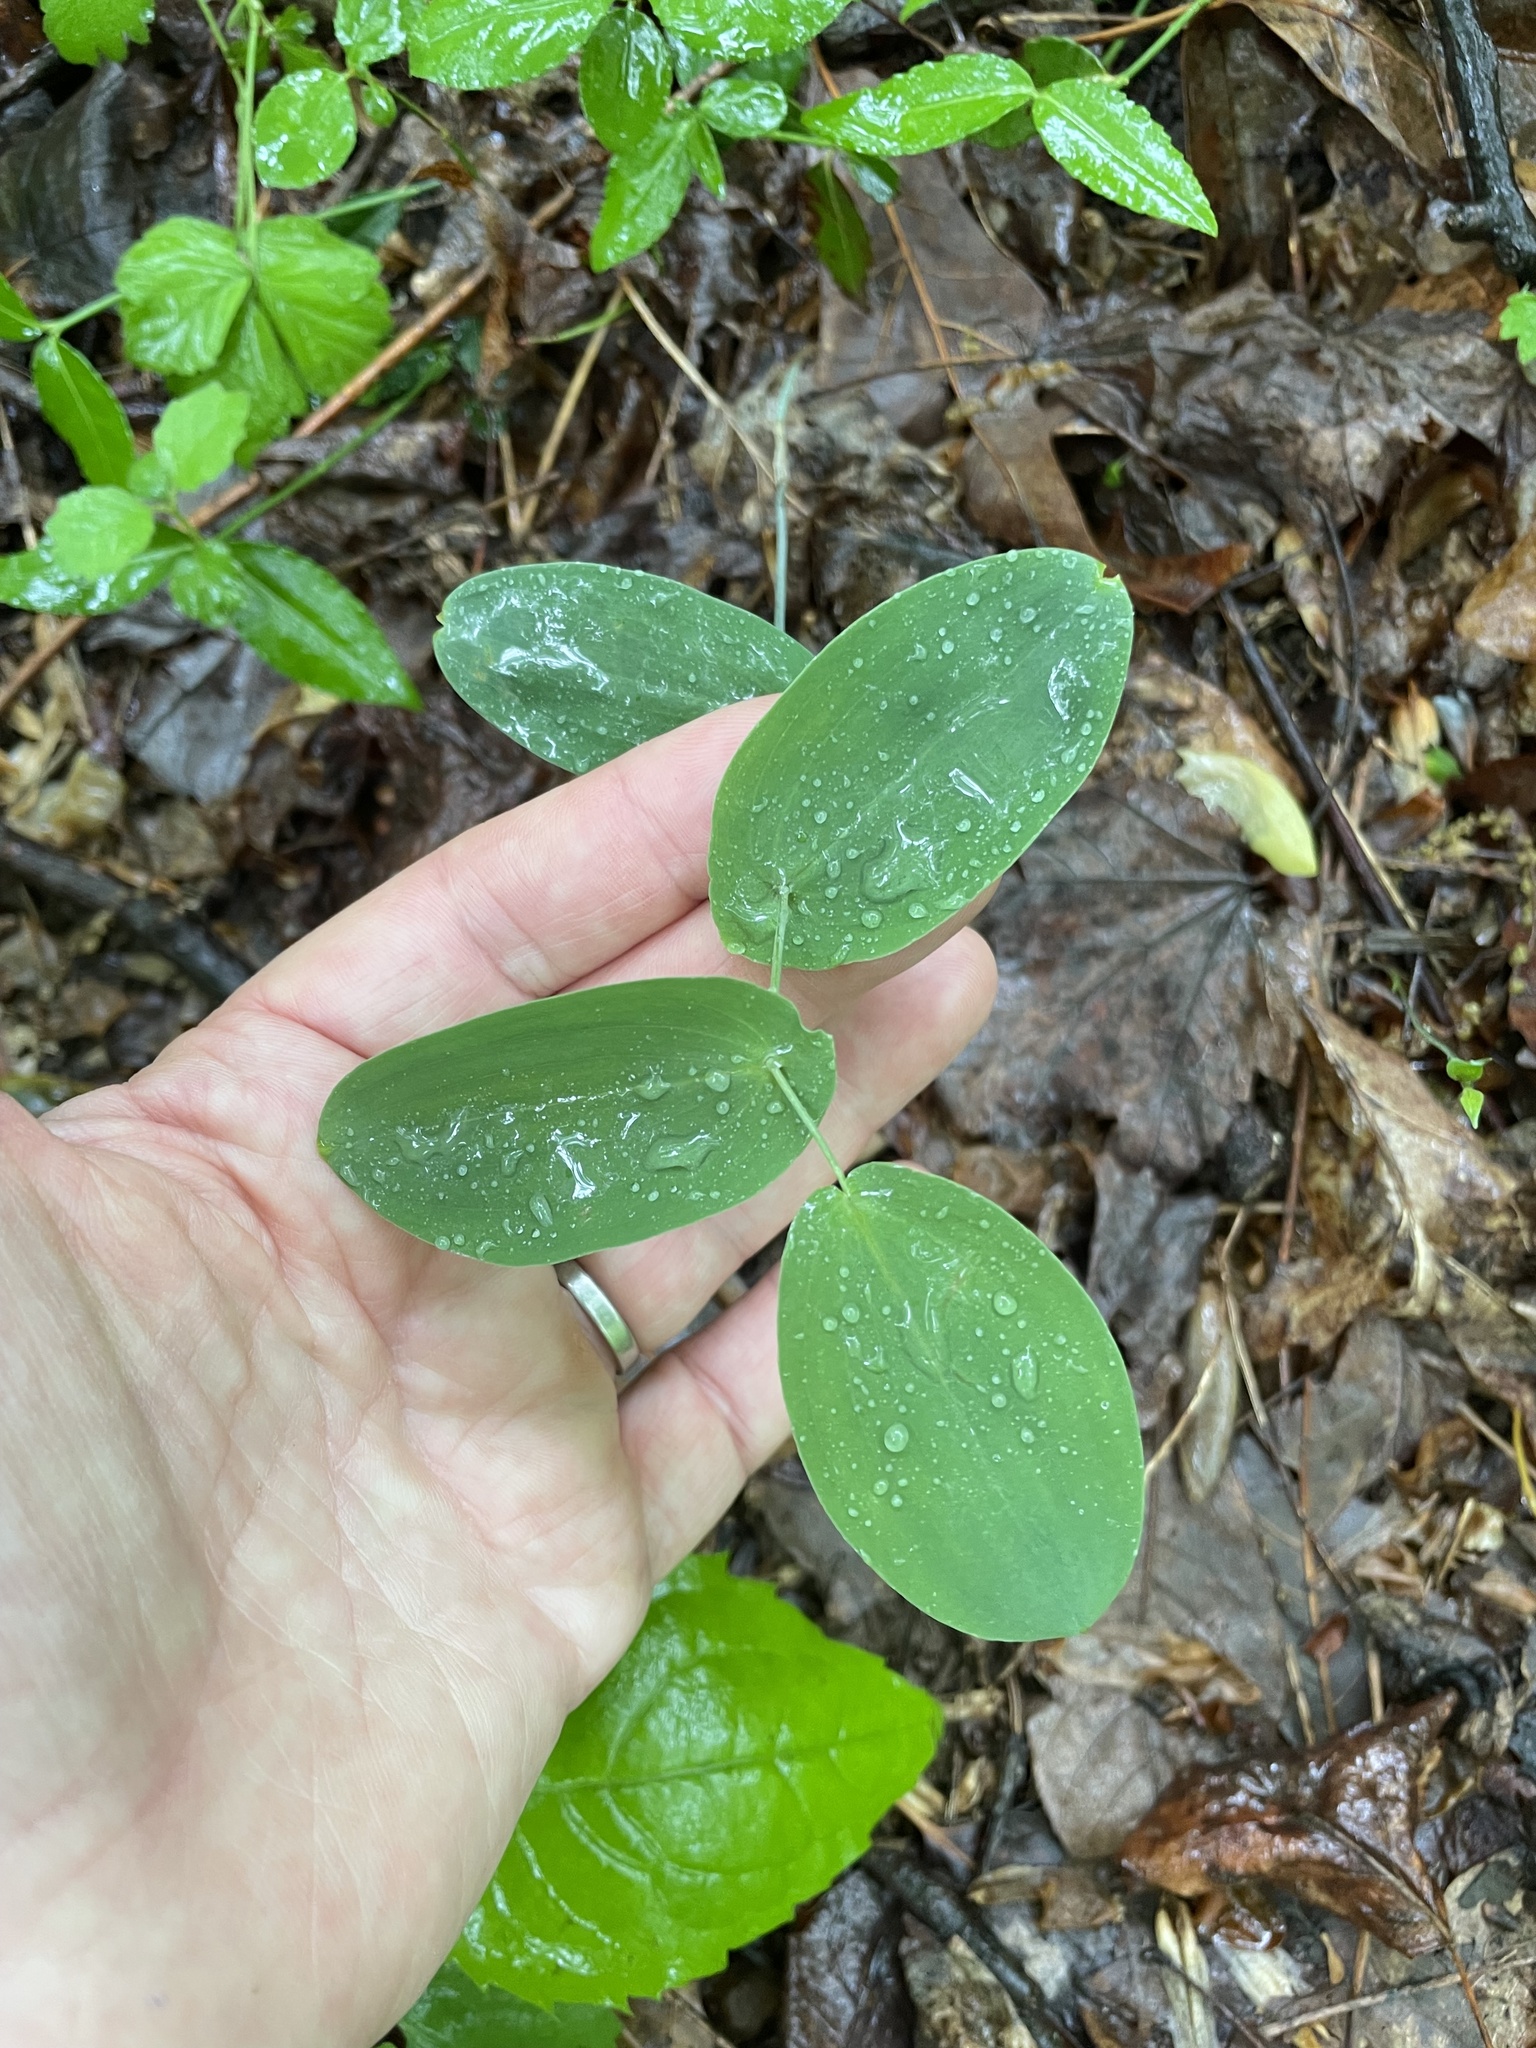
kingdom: Plantae
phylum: Tracheophyta
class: Liliopsida
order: Liliales
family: Colchicaceae
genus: Uvularia
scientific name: Uvularia perfoliata
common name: Perfoliate bellwort
